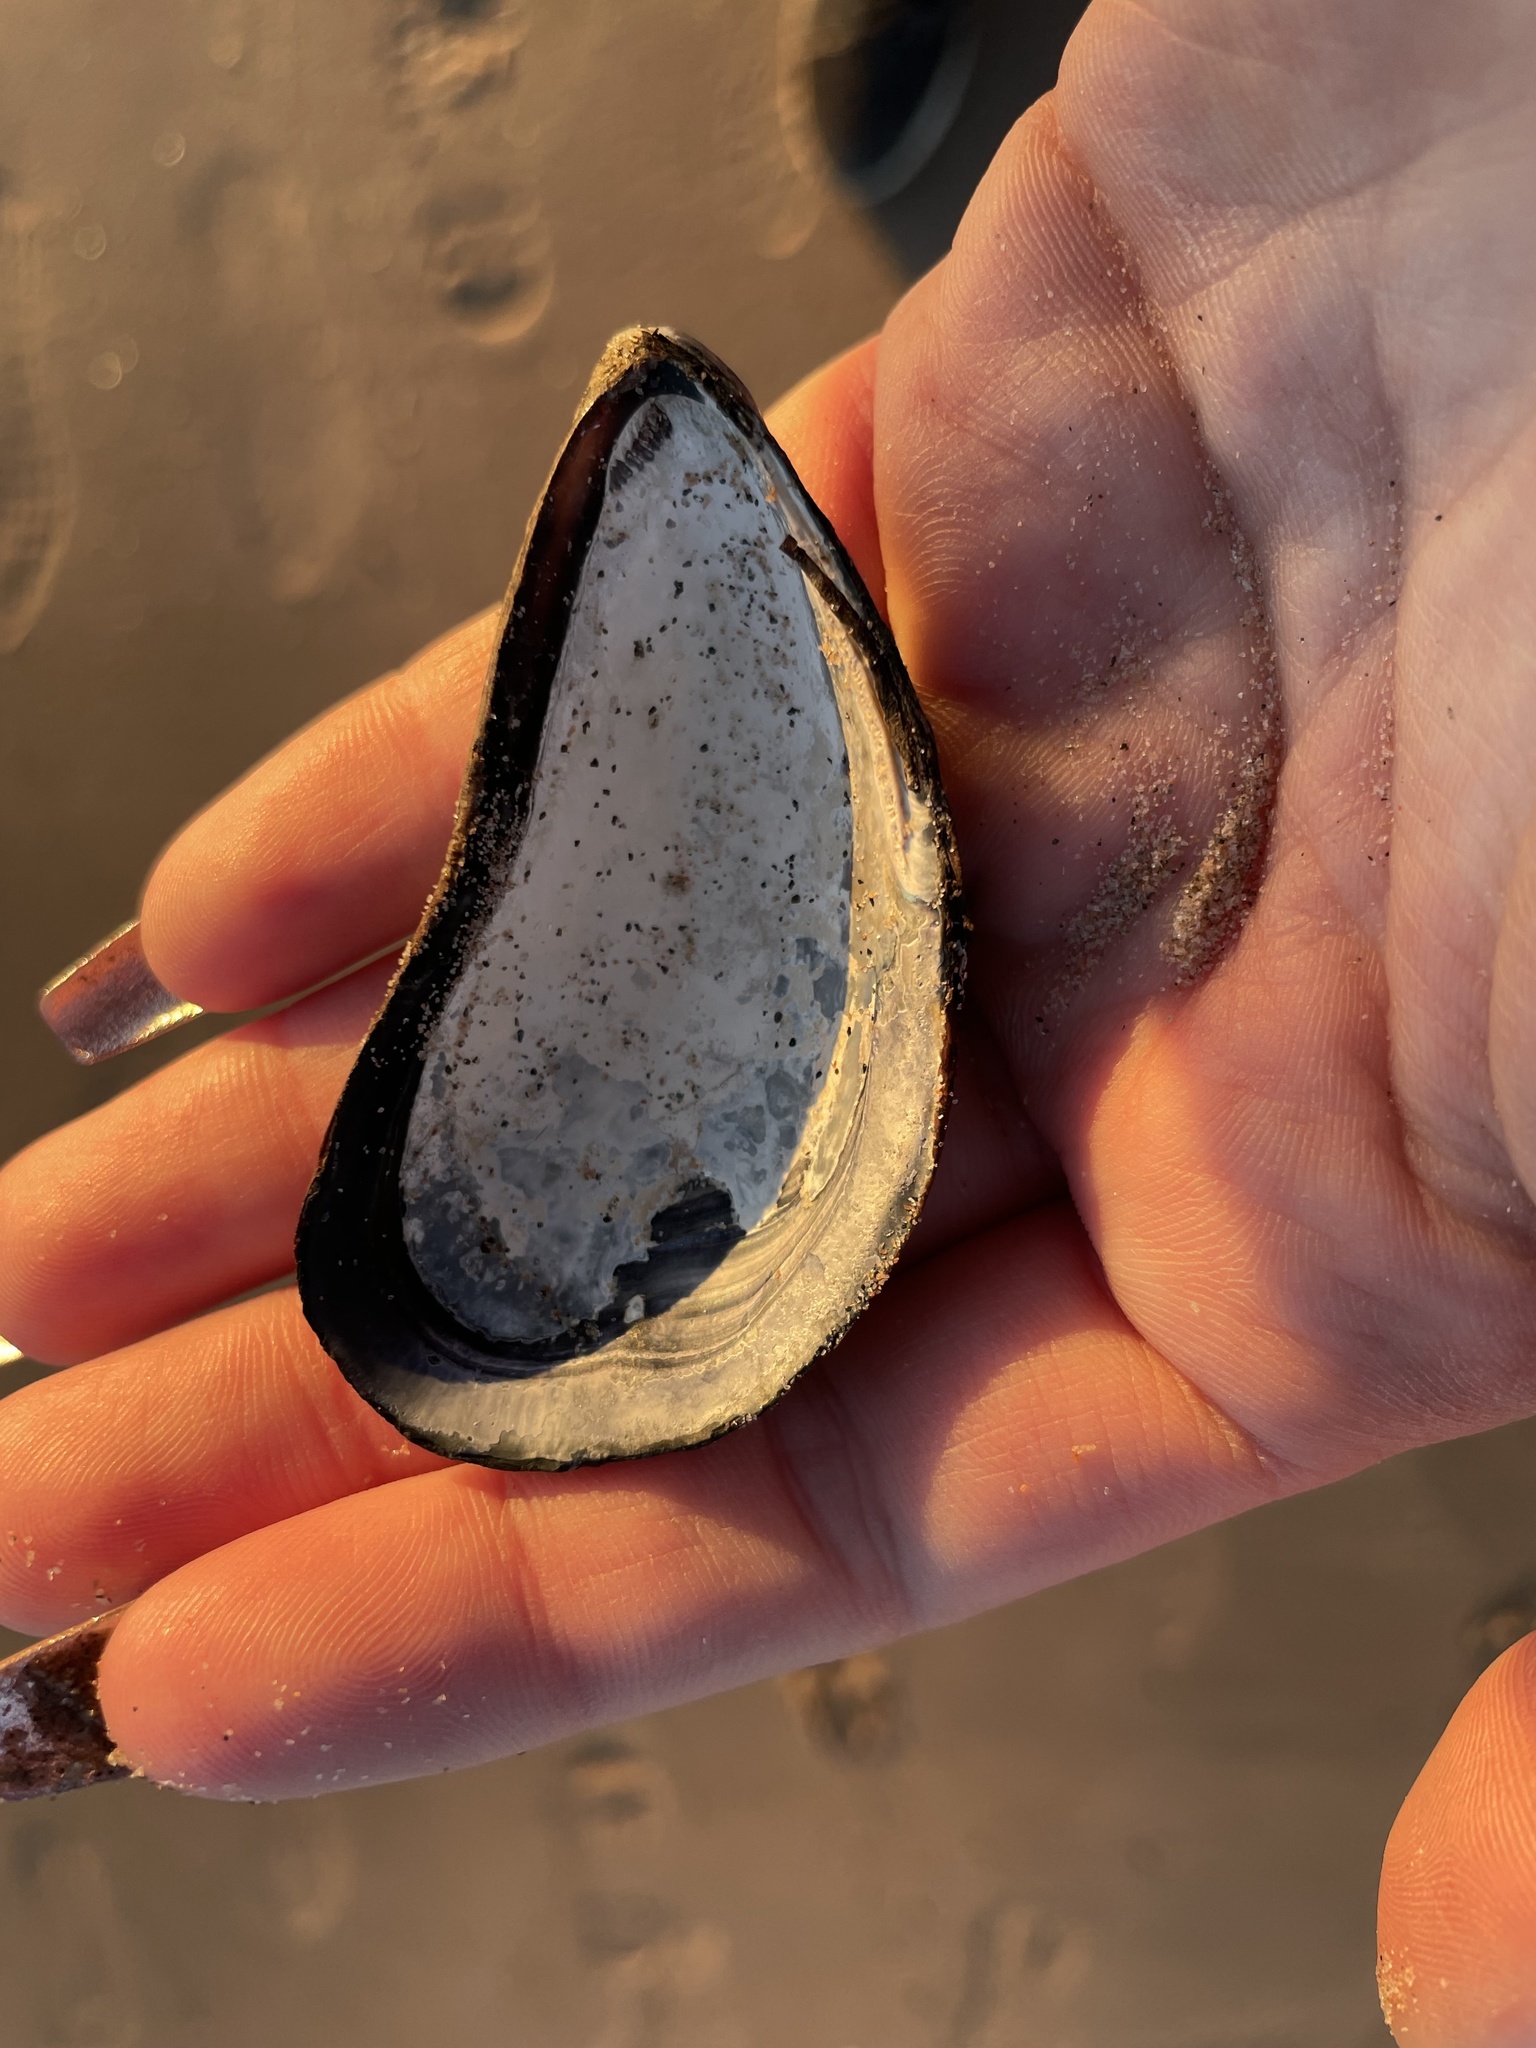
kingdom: Animalia
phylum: Mollusca
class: Bivalvia
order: Mytilida
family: Mytilidae
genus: Mytilus
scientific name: Mytilus edulis
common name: Blue mussel
